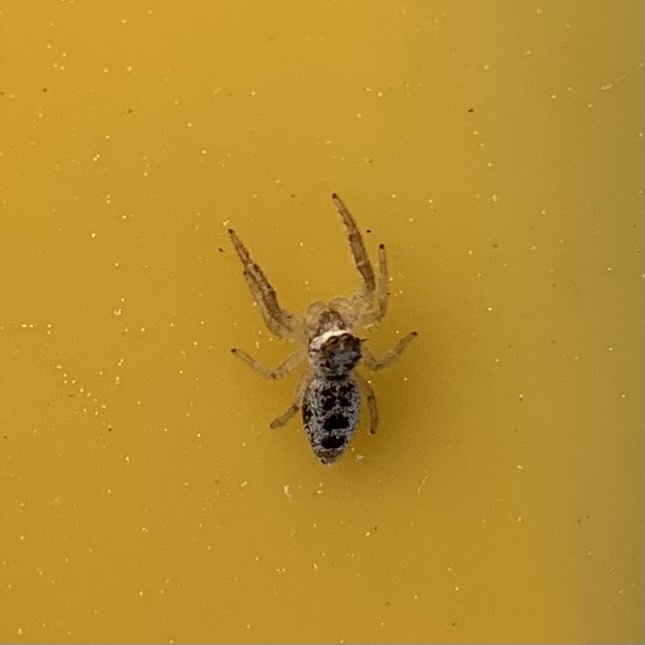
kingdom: Animalia
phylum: Arthropoda
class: Arachnida
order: Araneae
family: Salticidae
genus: Hentzia
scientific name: Hentzia mitrata
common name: White-jawed jumping spider
